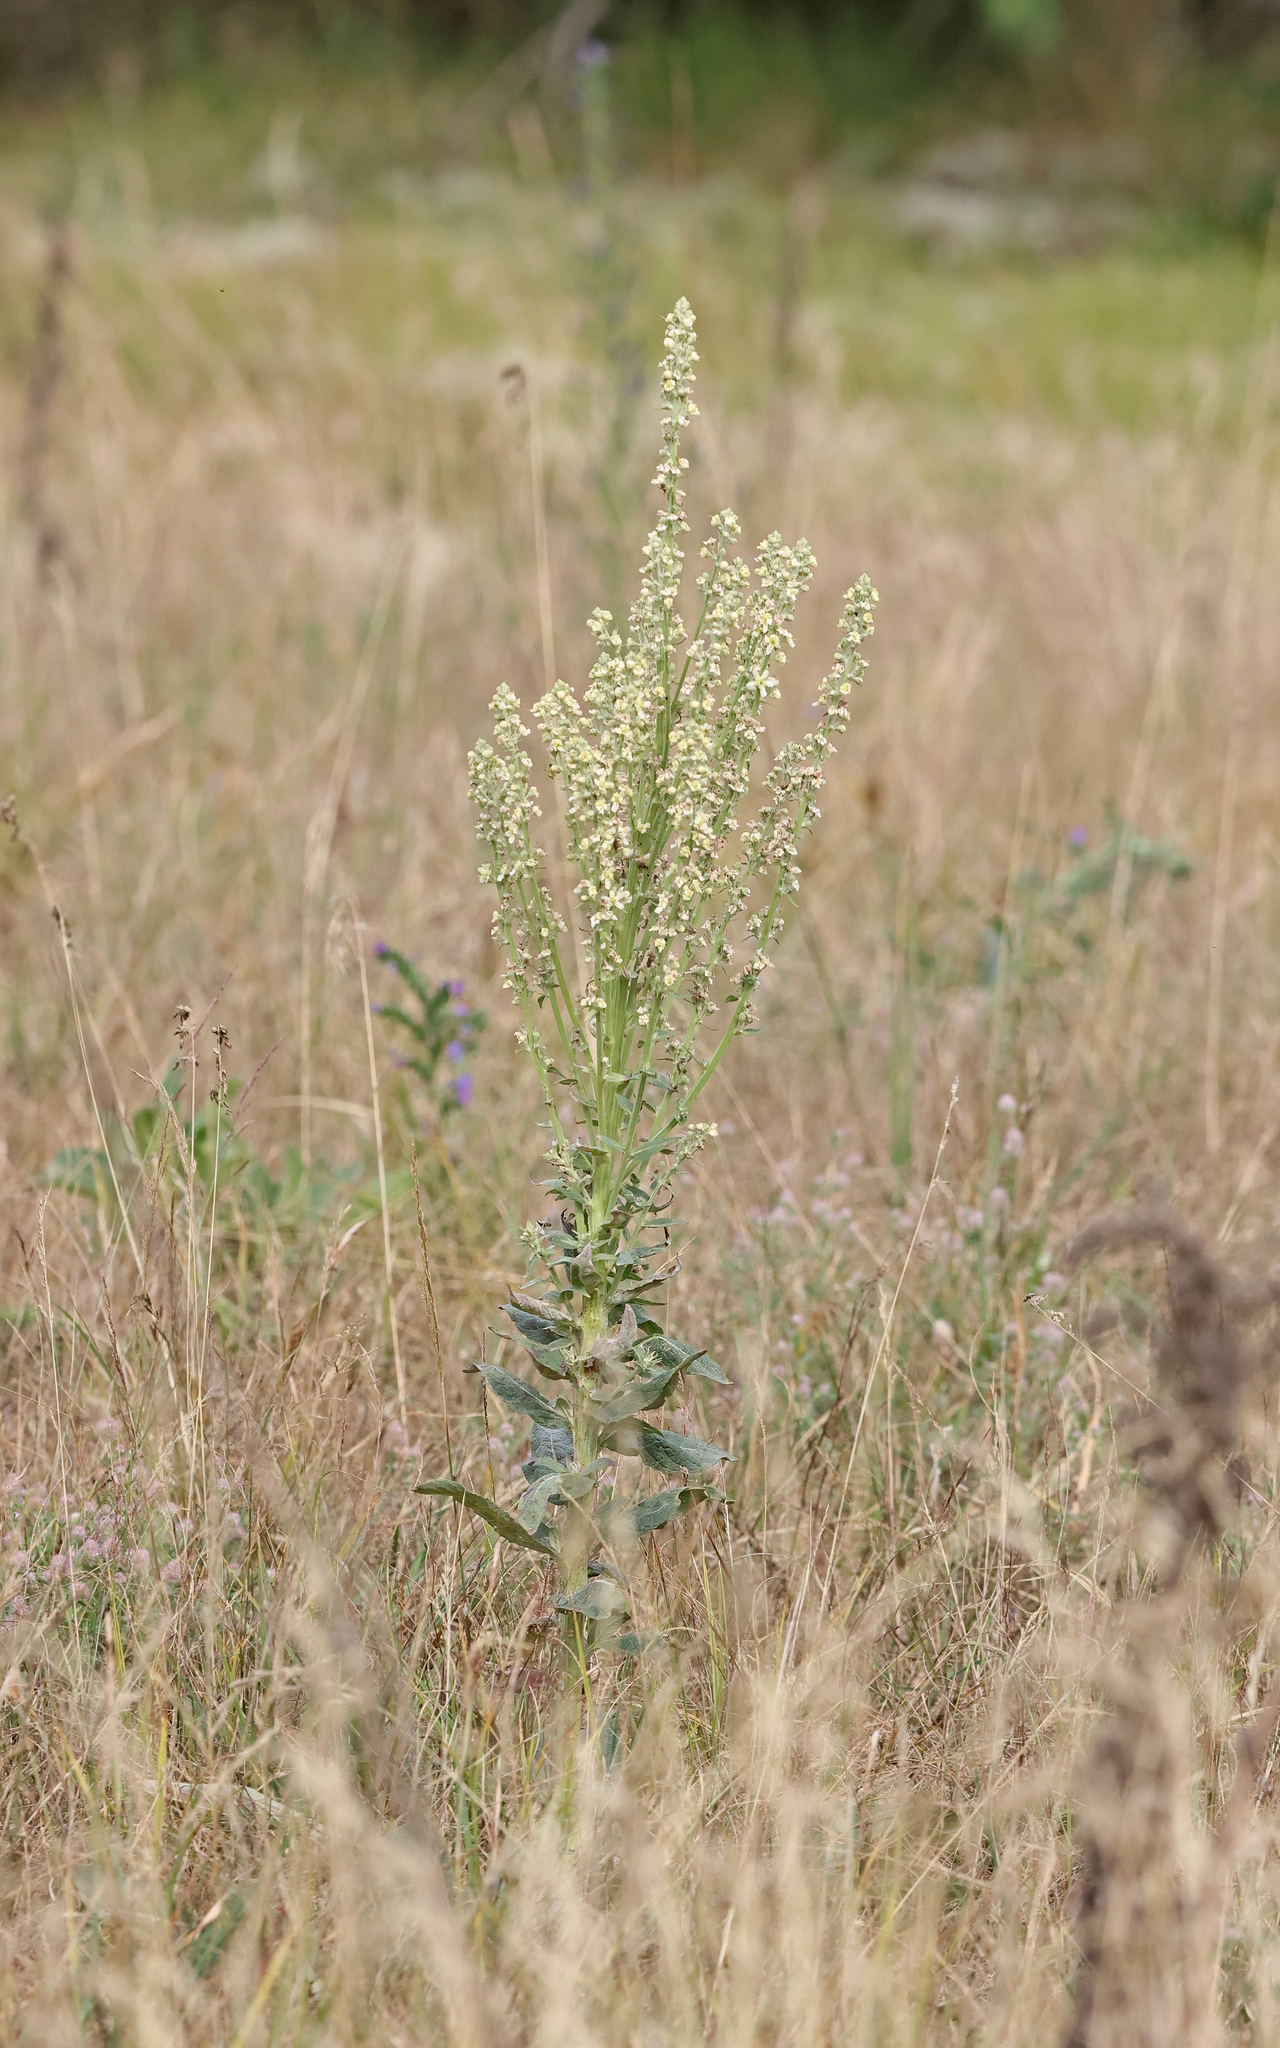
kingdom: Plantae
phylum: Tracheophyta
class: Magnoliopsida
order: Lamiales
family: Scrophulariaceae
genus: Verbascum
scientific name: Verbascum lychnitis
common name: White mullein
